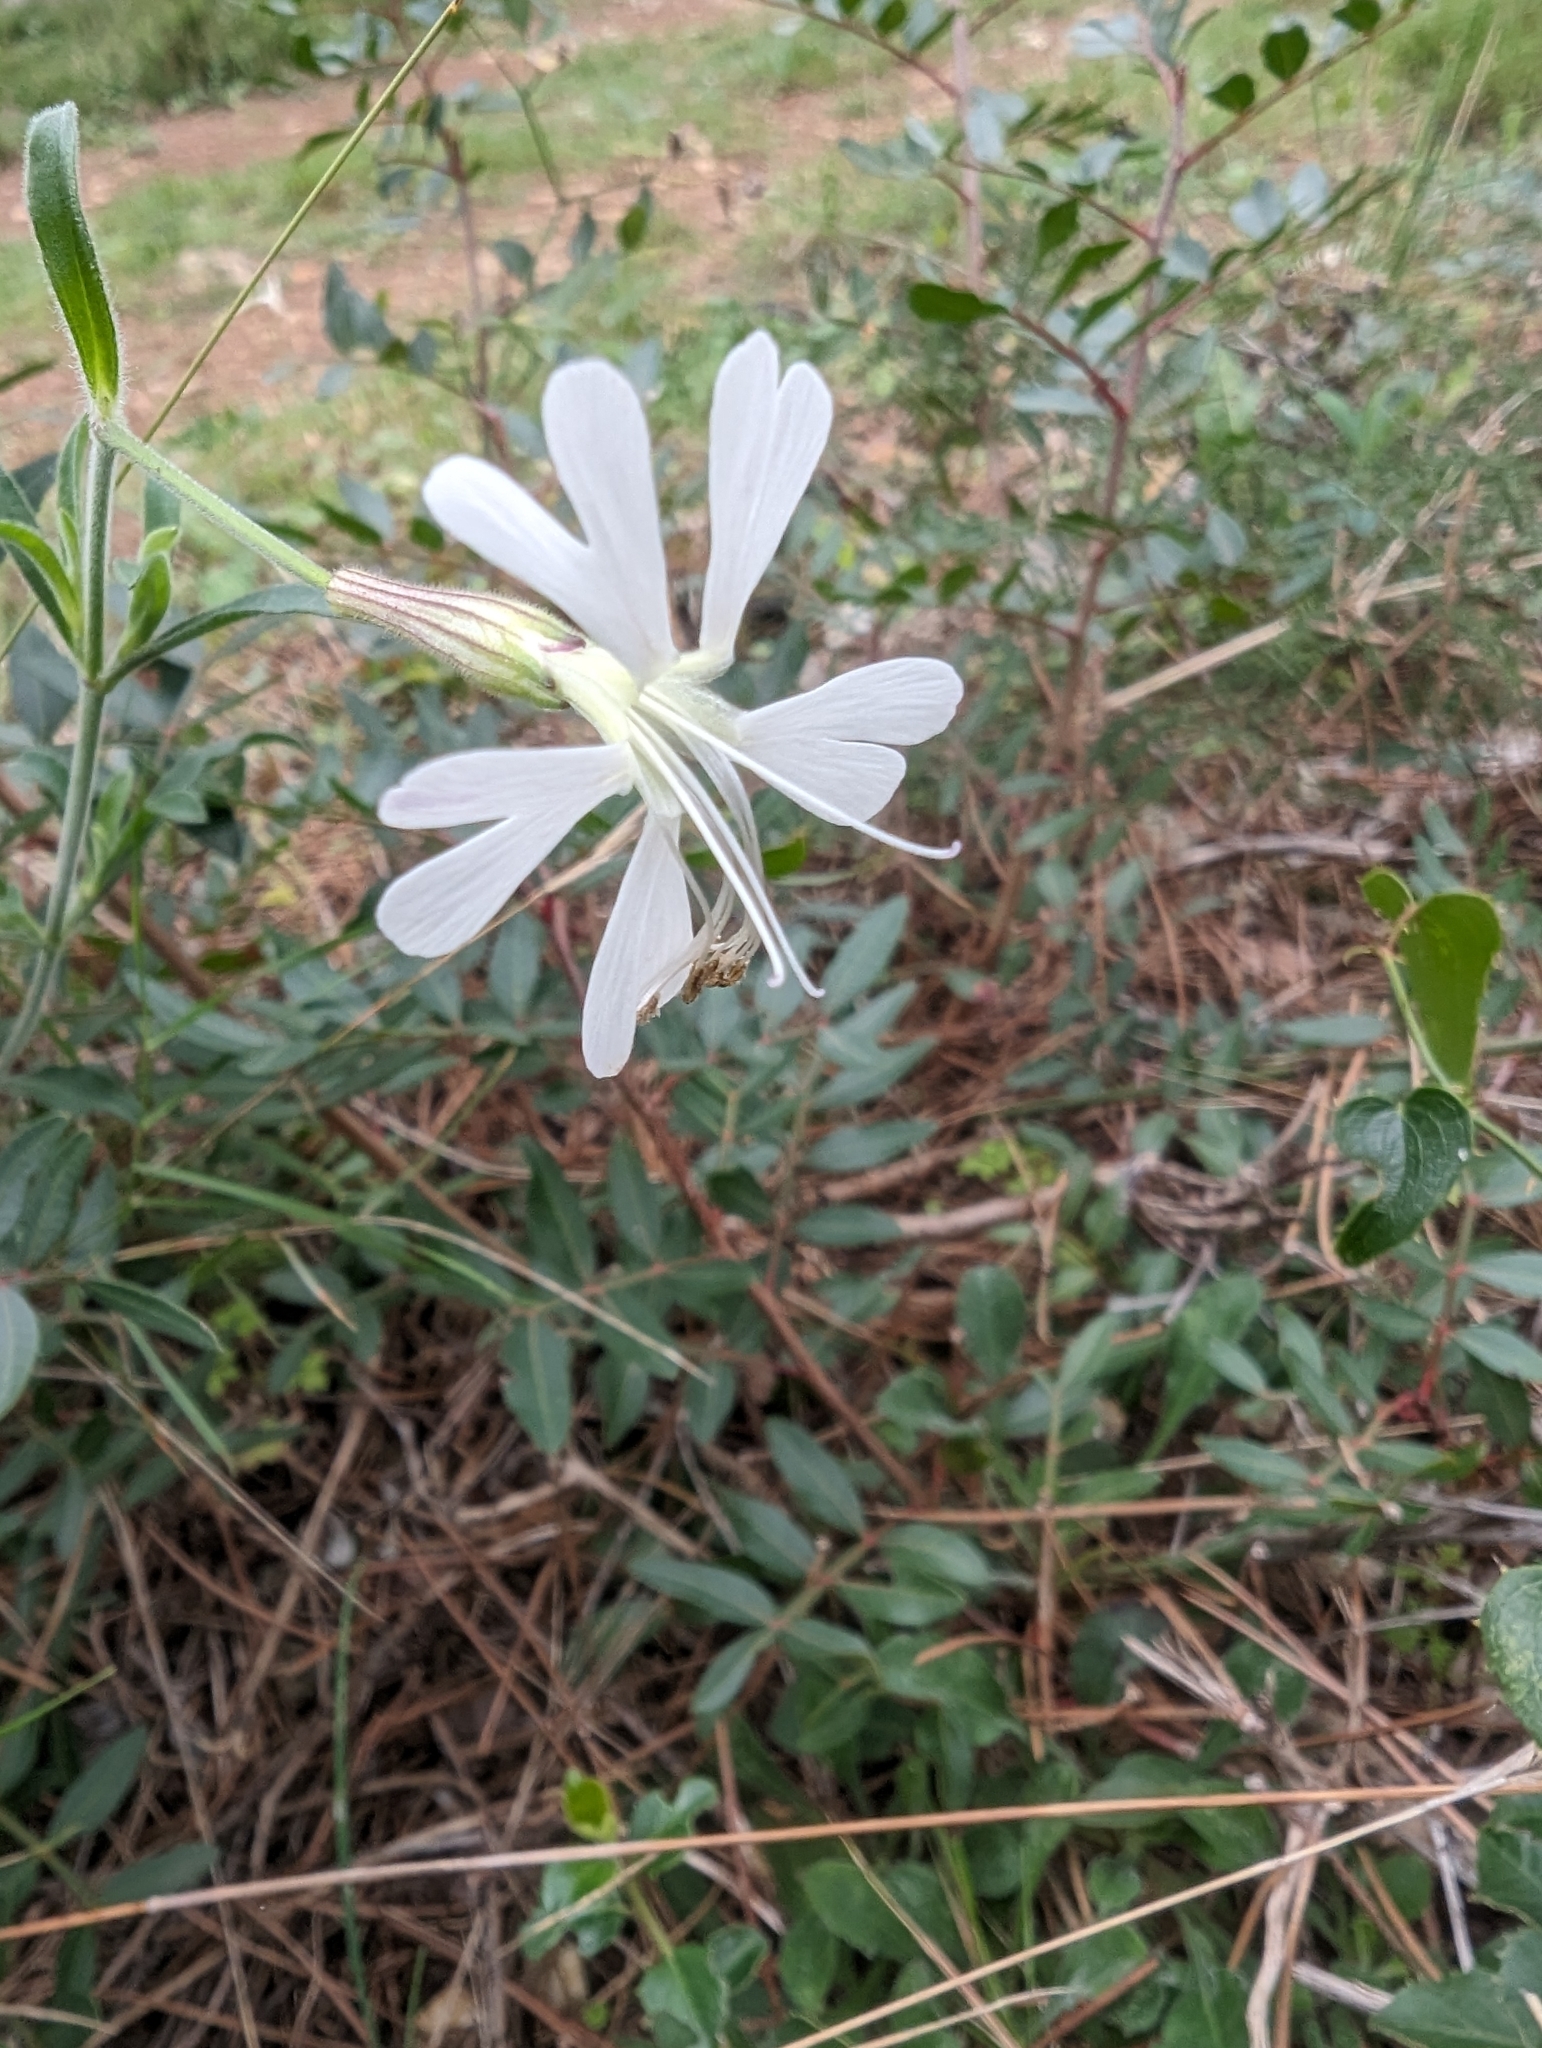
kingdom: Plantae
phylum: Tracheophyta
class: Magnoliopsida
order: Caryophyllales
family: Caryophyllaceae
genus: Silene
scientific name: Silene italica
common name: Italian catchfly
